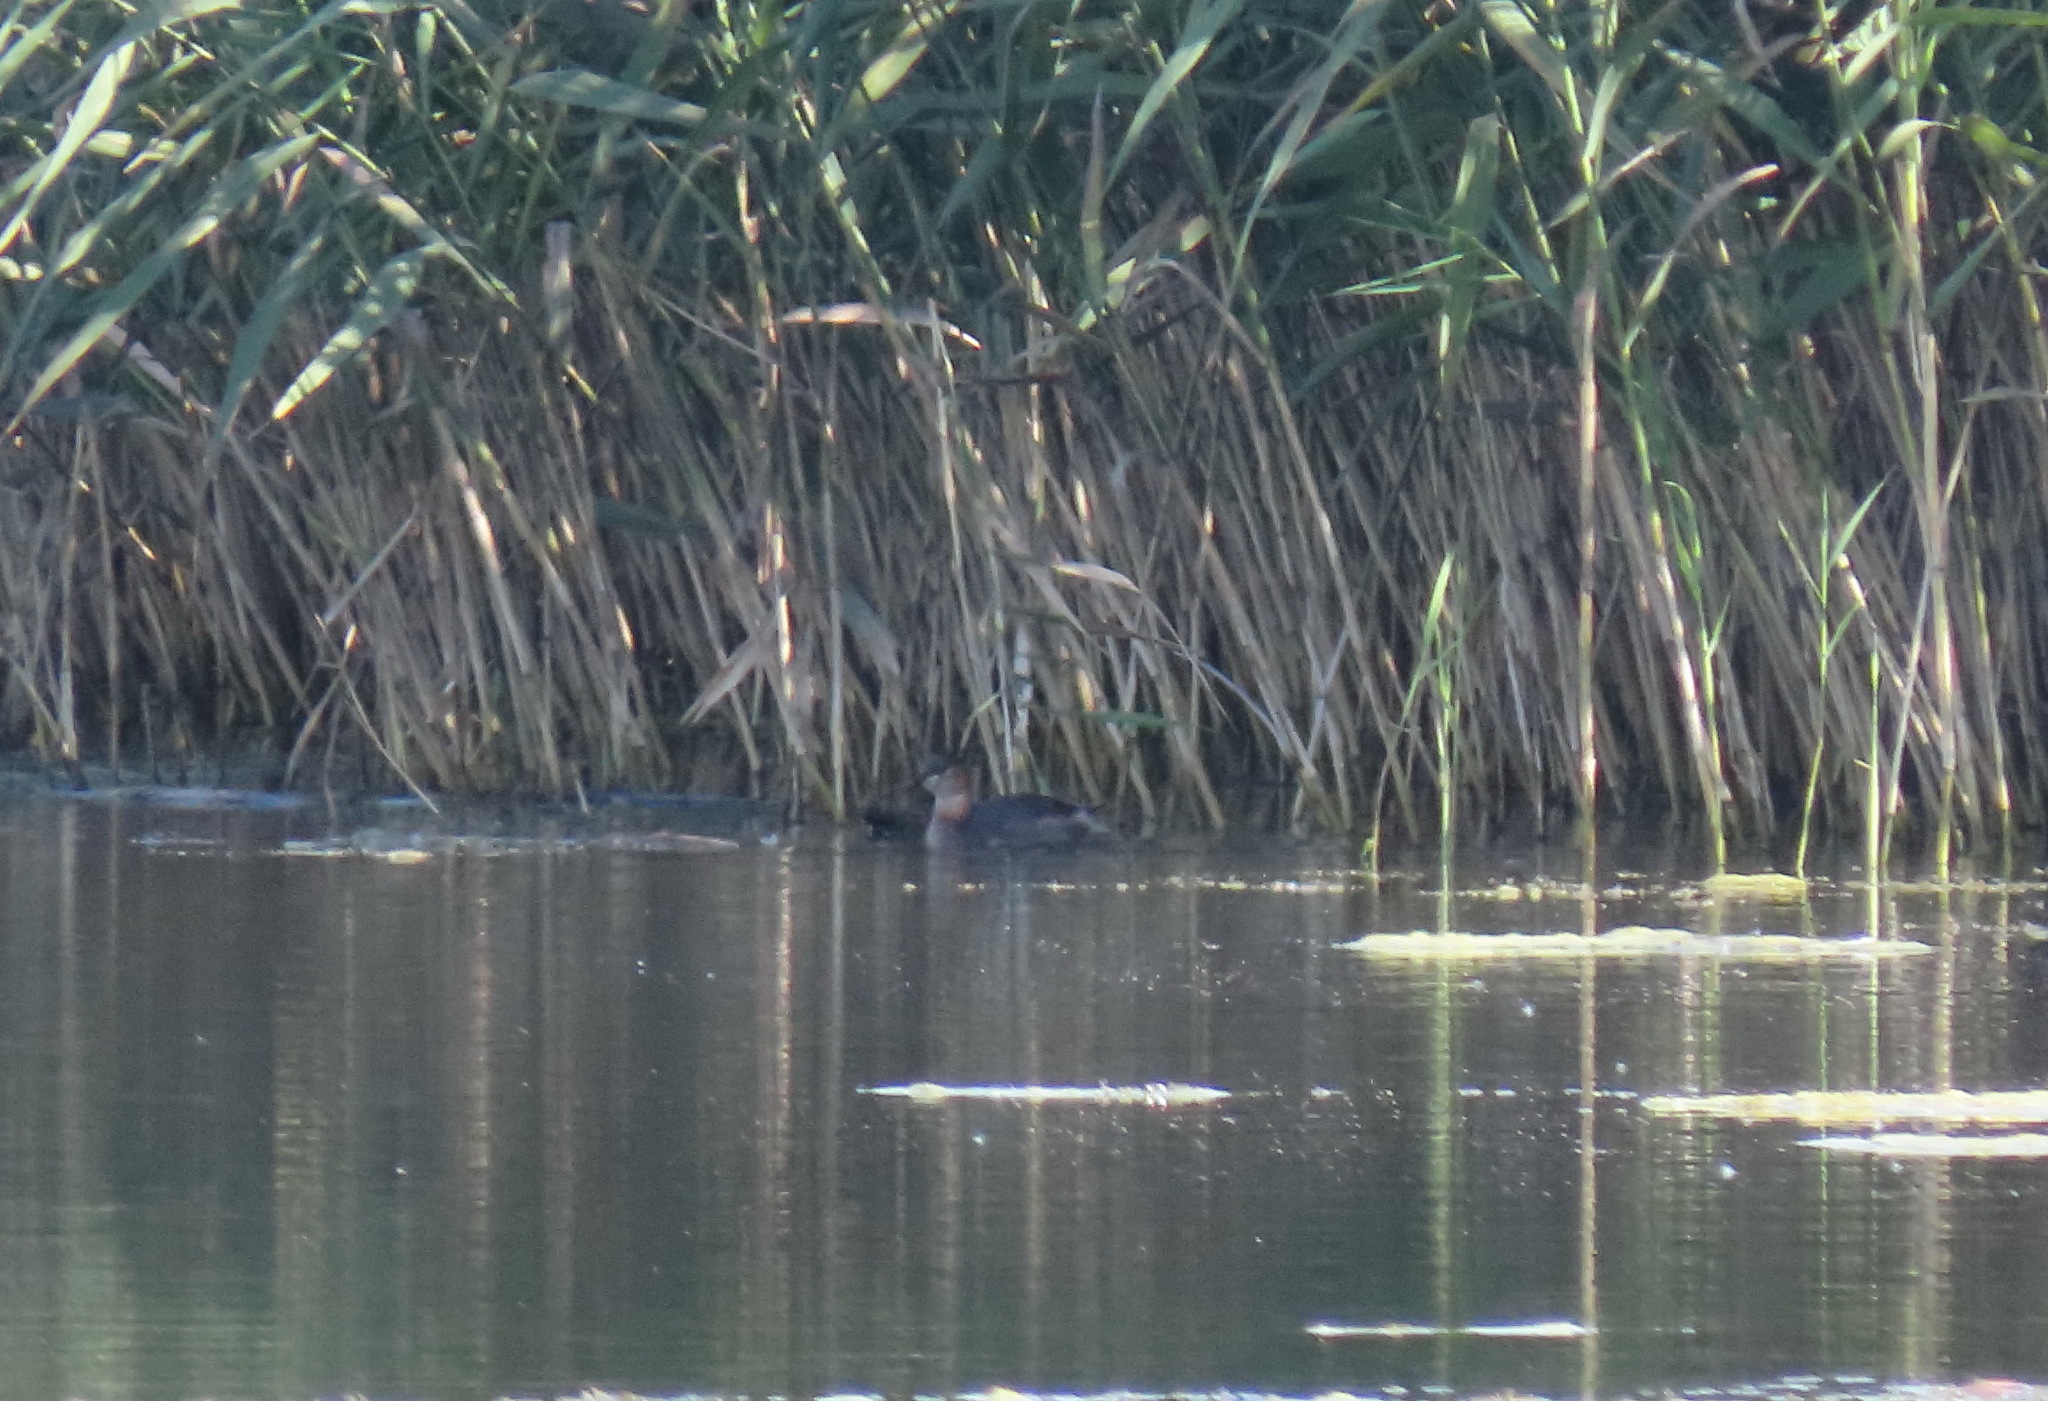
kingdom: Animalia
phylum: Chordata
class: Aves
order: Podicipediformes
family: Podicipedidae
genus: Tachybaptus
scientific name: Tachybaptus ruficollis
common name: Little grebe
